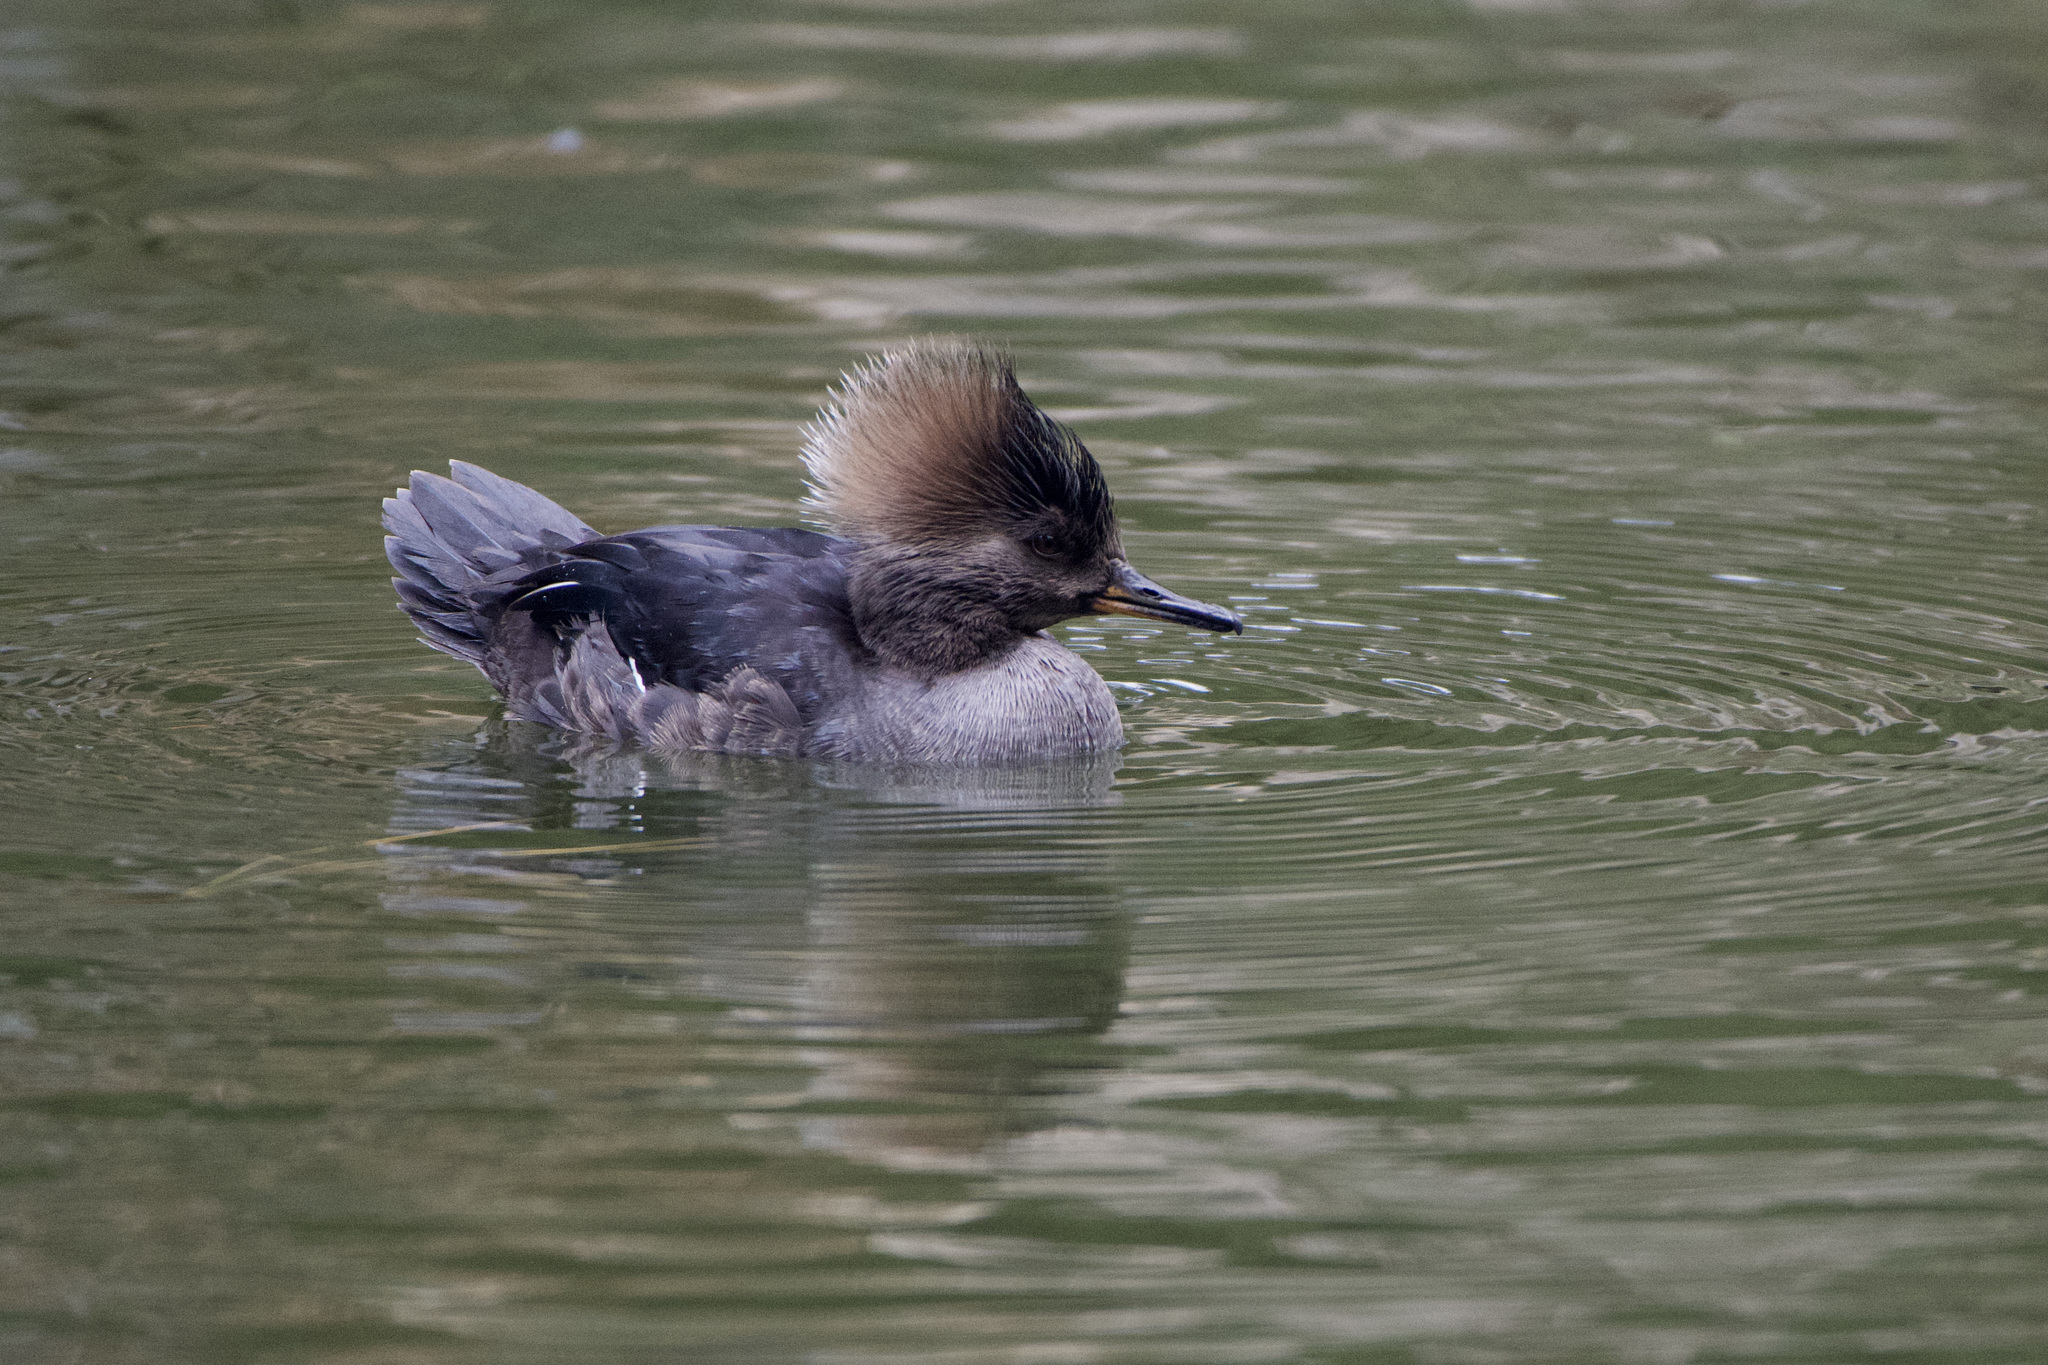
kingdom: Animalia
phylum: Chordata
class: Aves
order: Anseriformes
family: Anatidae
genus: Lophodytes
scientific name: Lophodytes cucullatus
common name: Hooded merganser
